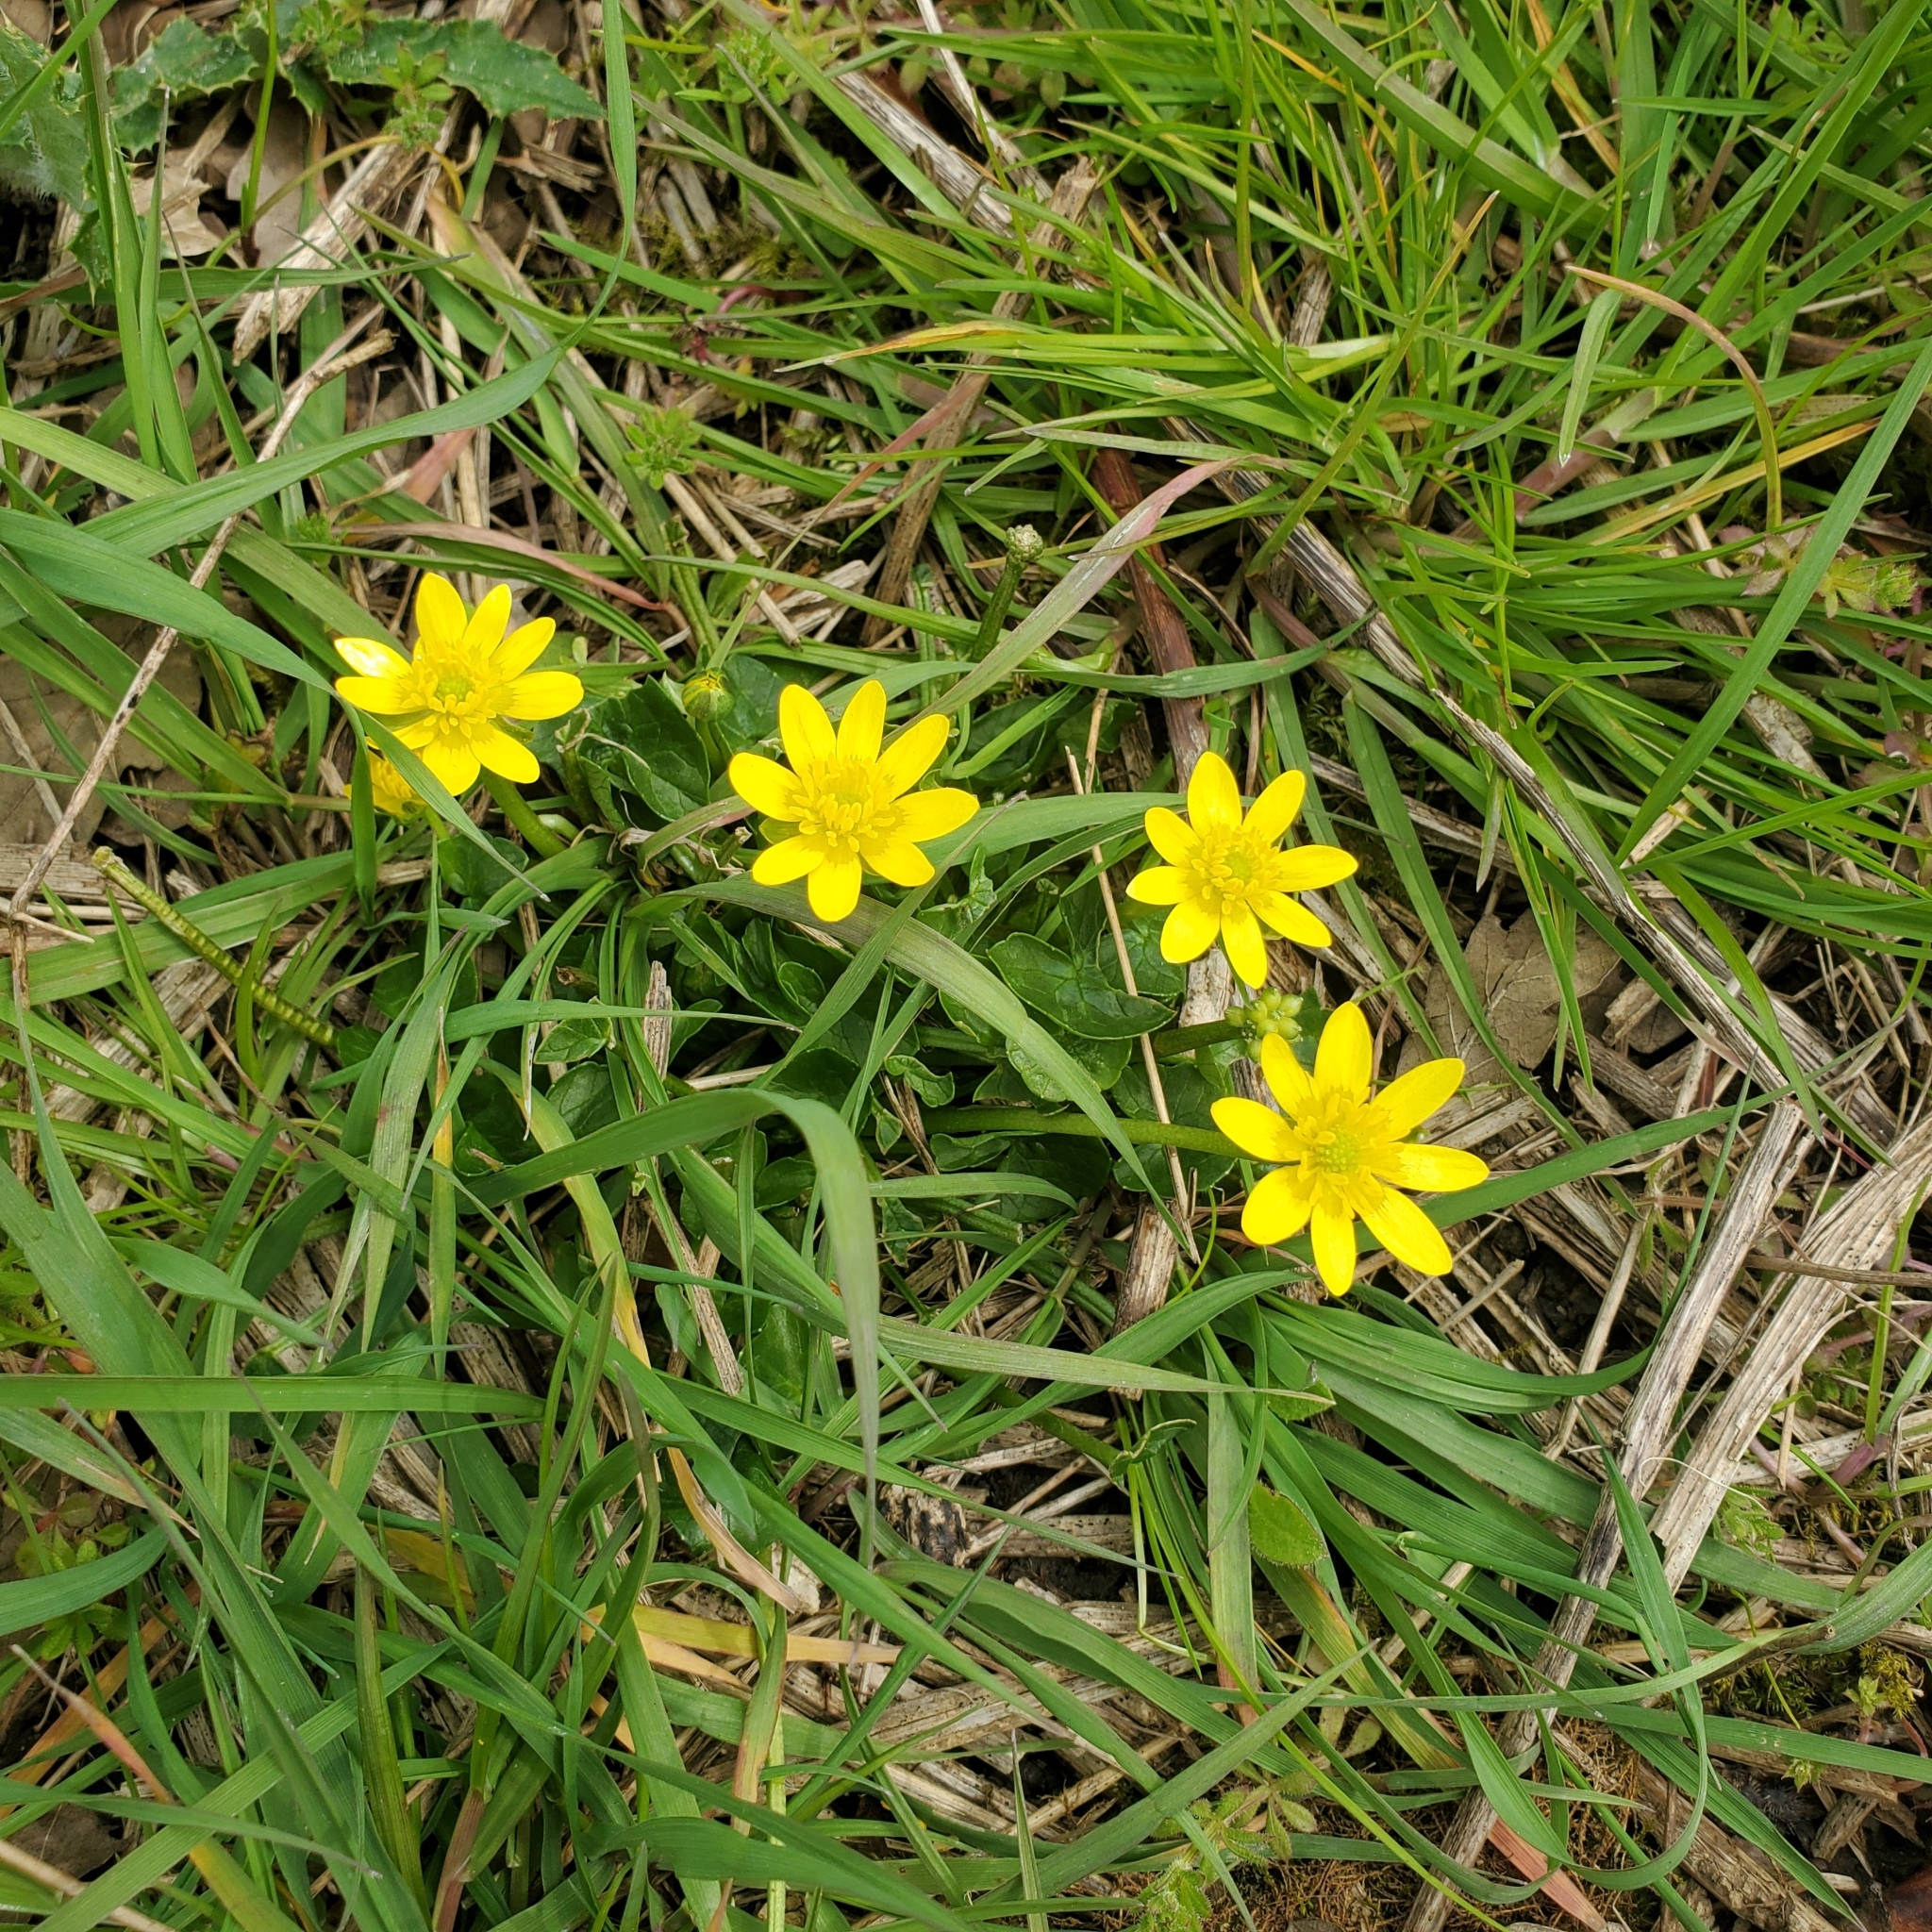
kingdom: Plantae
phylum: Tracheophyta
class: Magnoliopsida
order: Ranunculales
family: Ranunculaceae
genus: Ficaria
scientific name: Ficaria verna
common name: Lesser celandine
